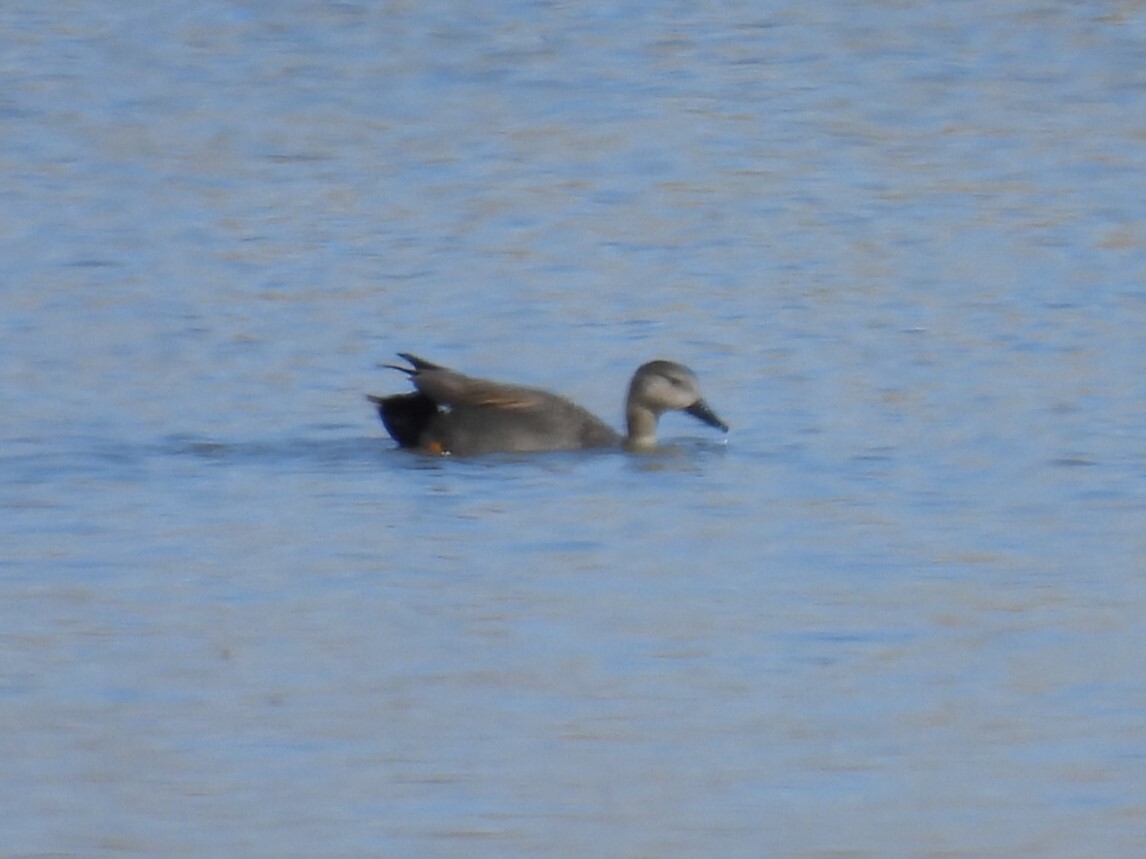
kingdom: Animalia
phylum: Chordata
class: Aves
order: Anseriformes
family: Anatidae
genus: Mareca
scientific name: Mareca strepera
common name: Gadwall
